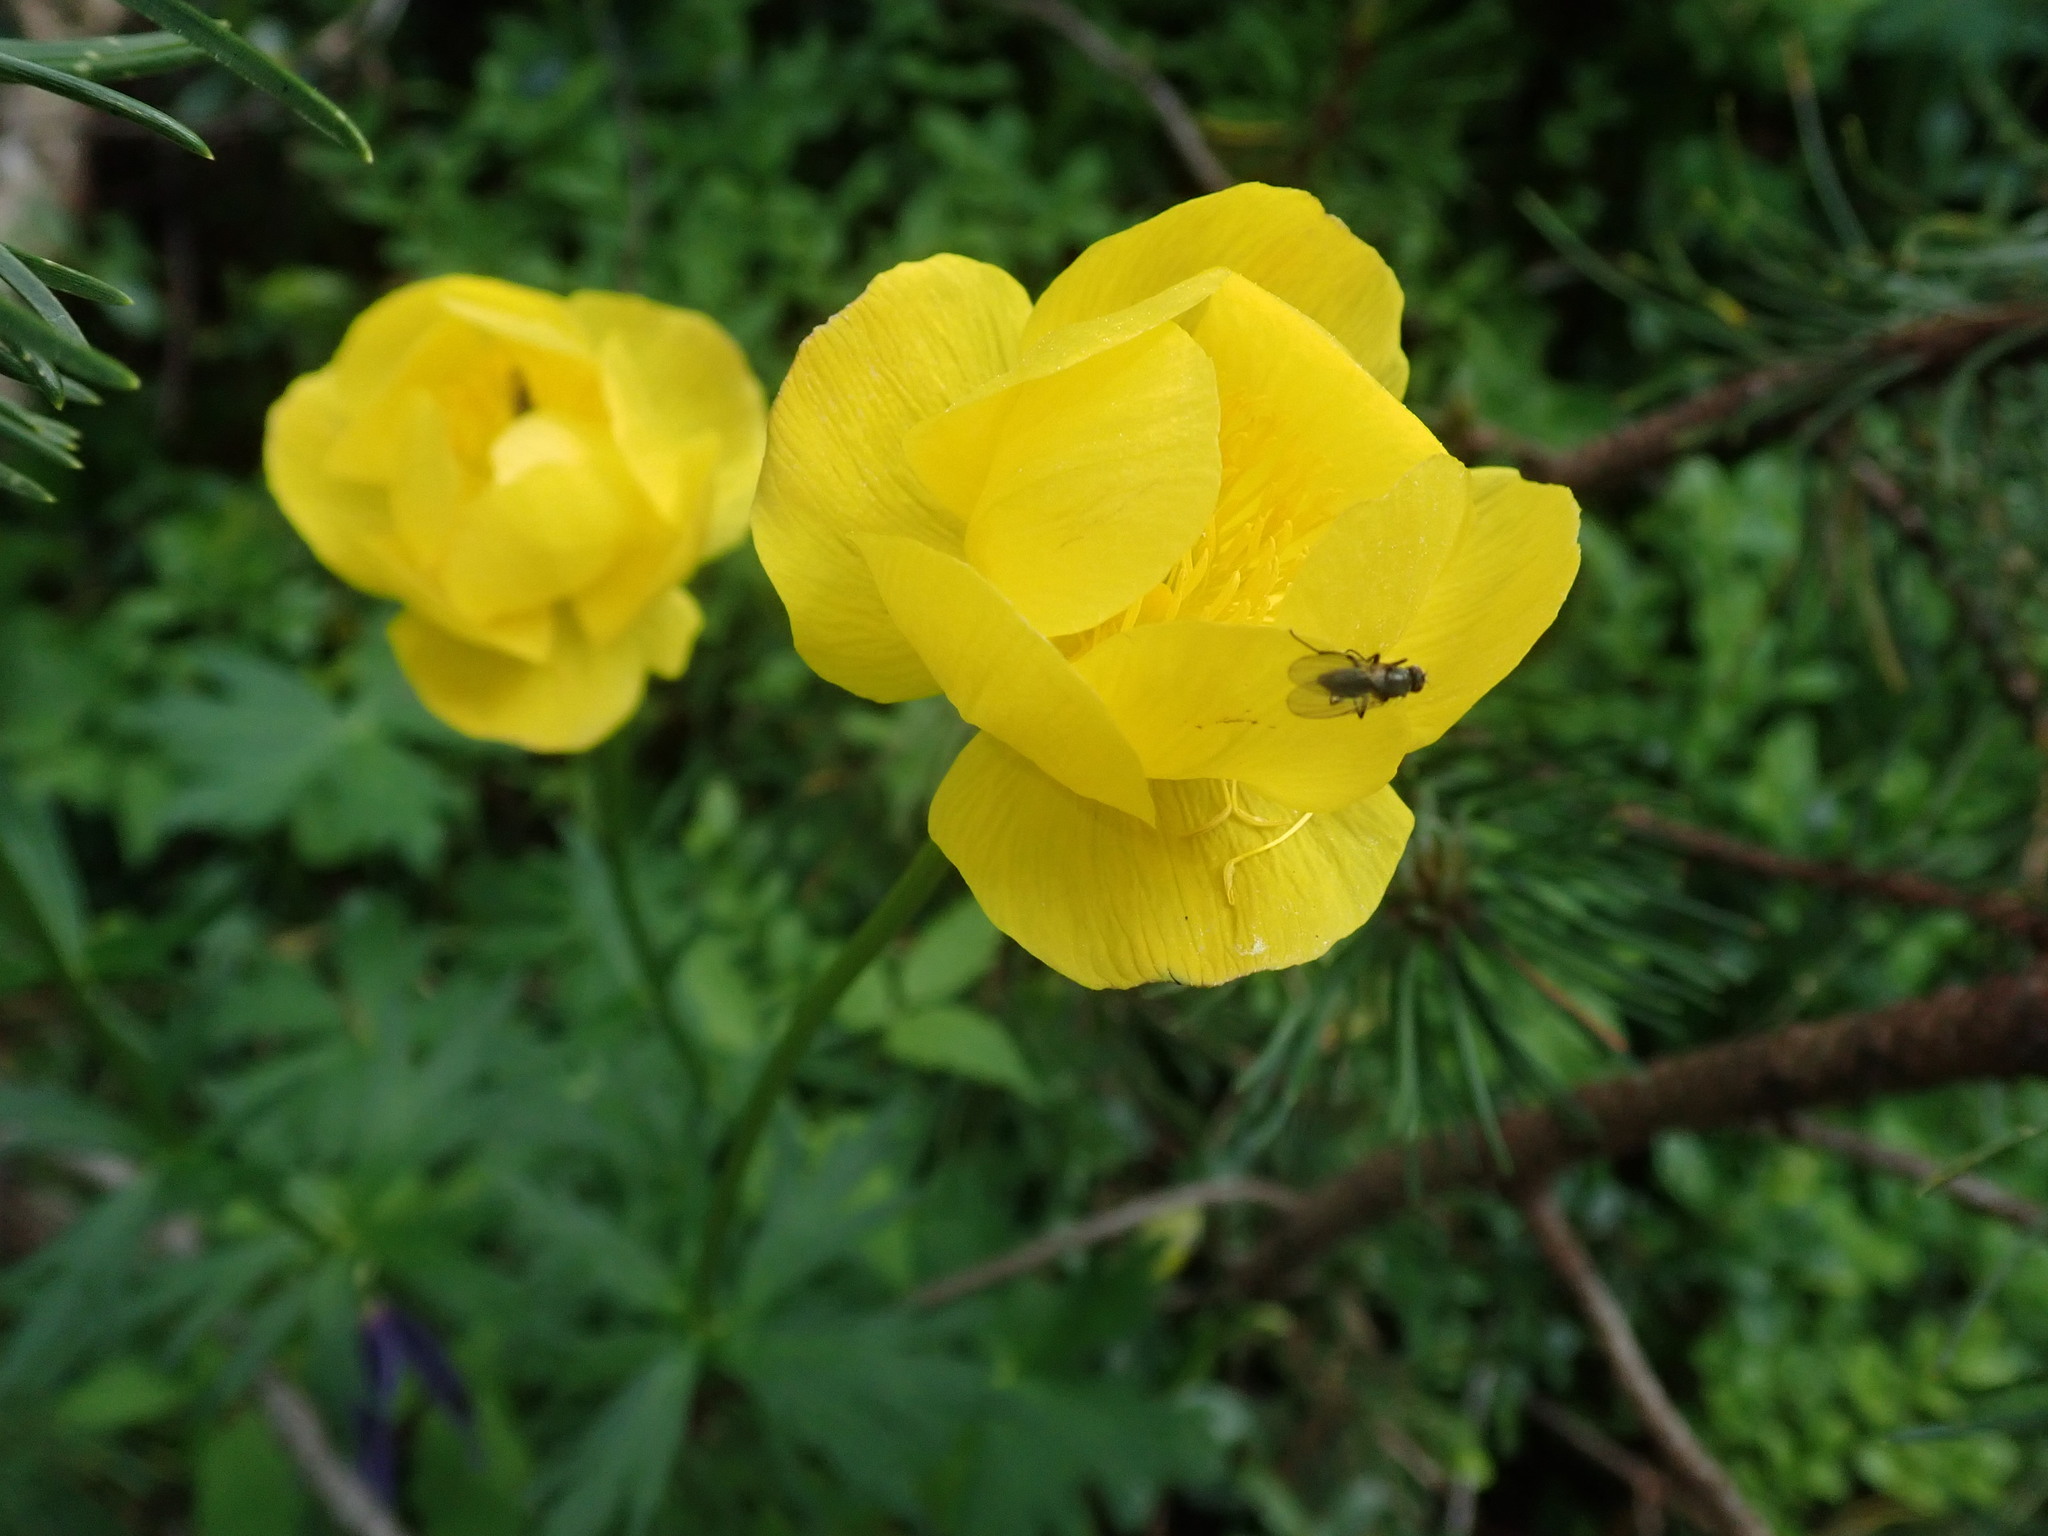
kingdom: Plantae
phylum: Tracheophyta
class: Magnoliopsida
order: Ranunculales
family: Ranunculaceae
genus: Trollius
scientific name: Trollius europaeus
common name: European globeflower
